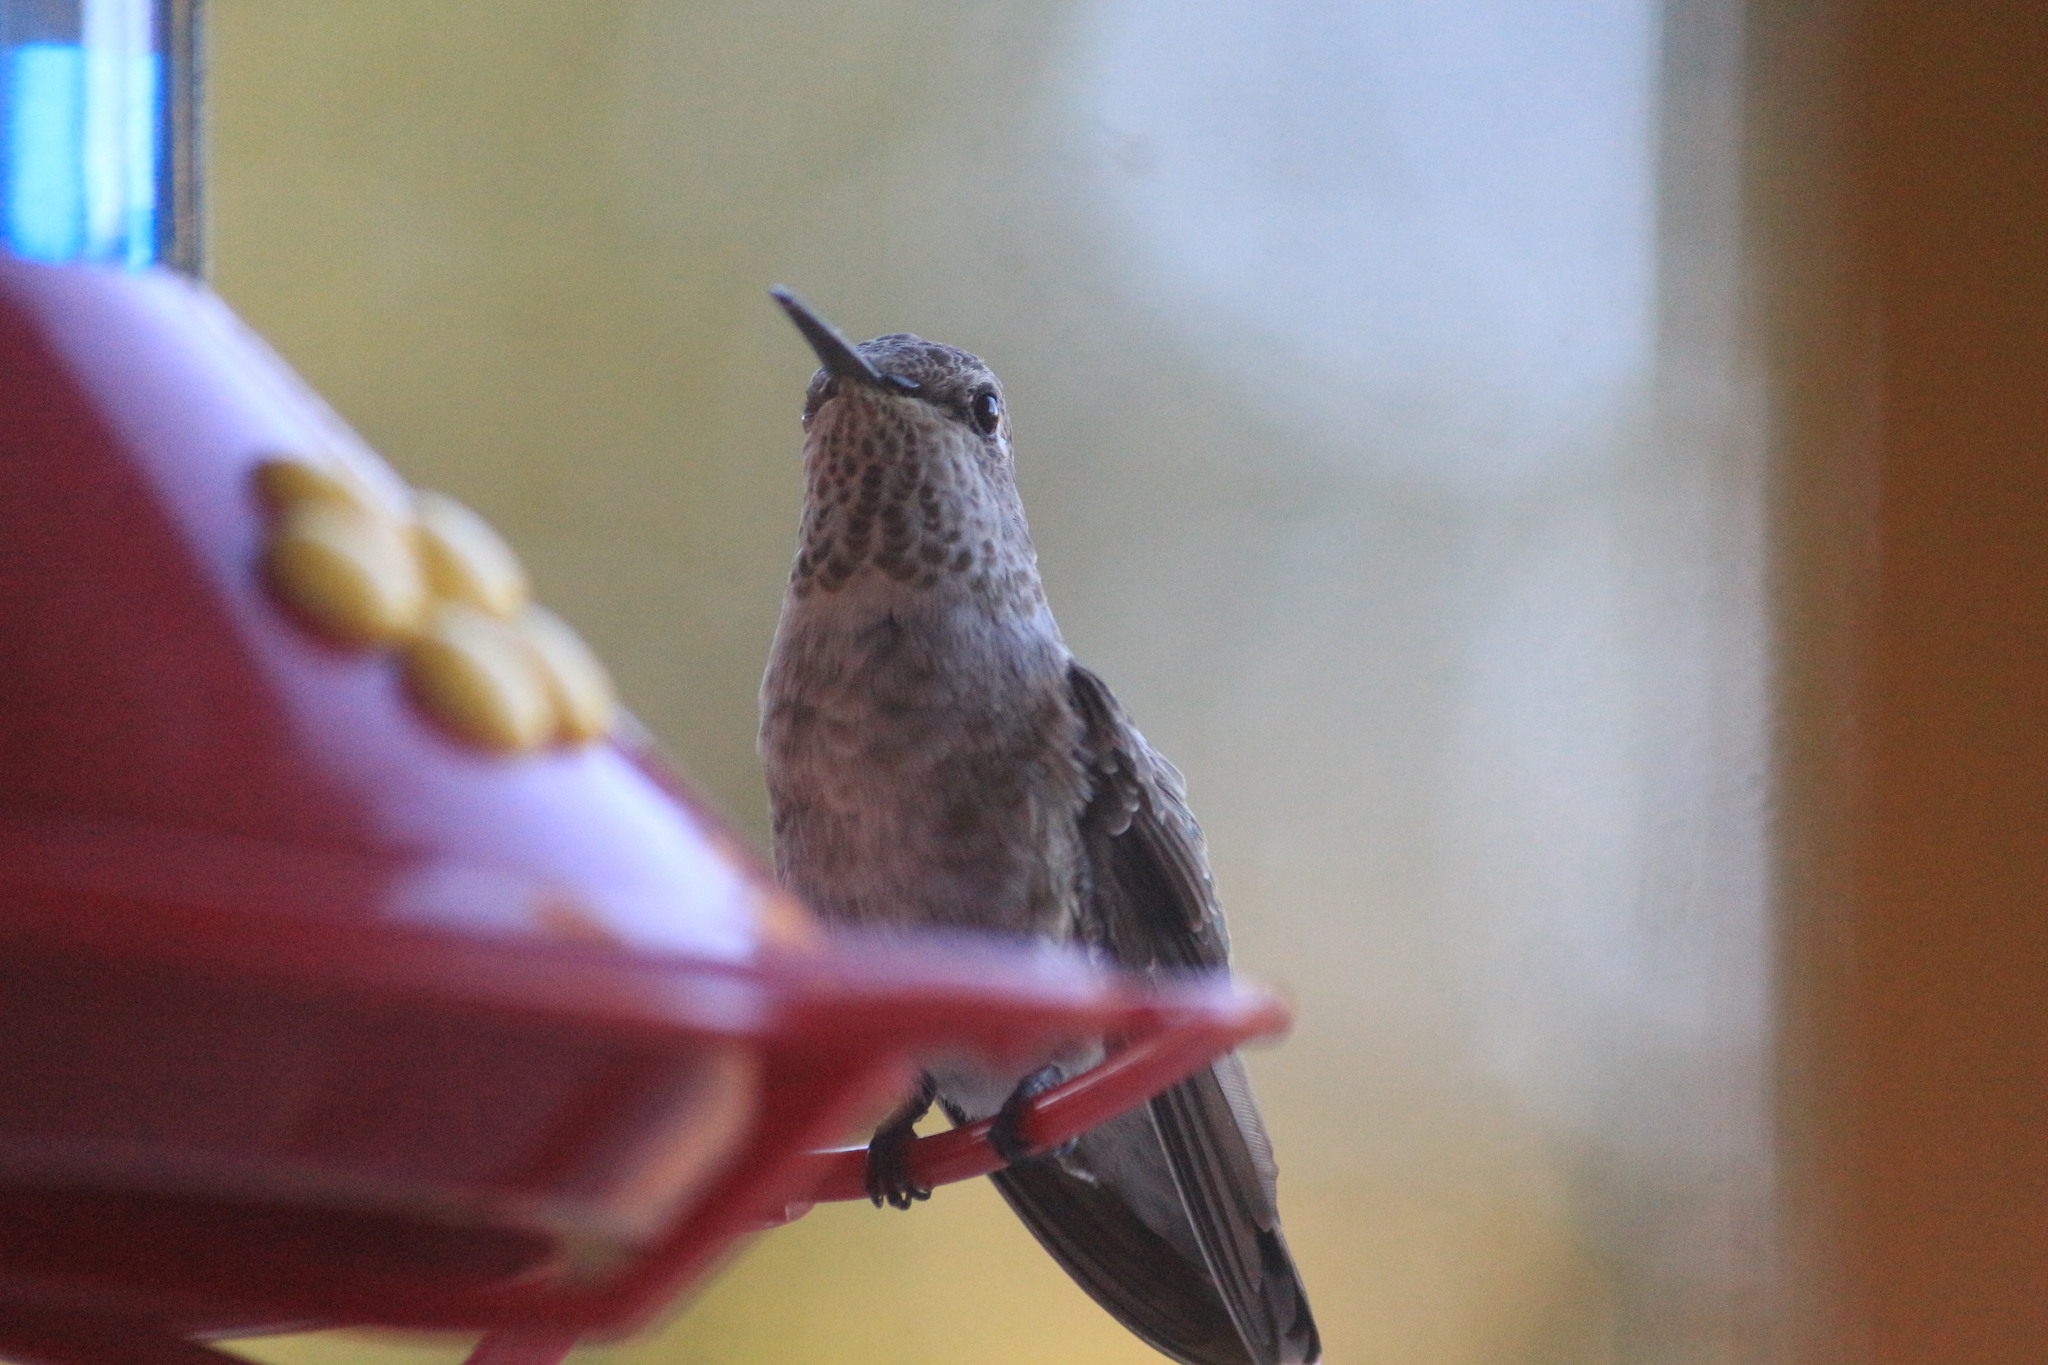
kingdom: Animalia
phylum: Chordata
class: Aves
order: Apodiformes
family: Trochilidae
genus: Calypte
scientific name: Calypte anna
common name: Anna's hummingbird
